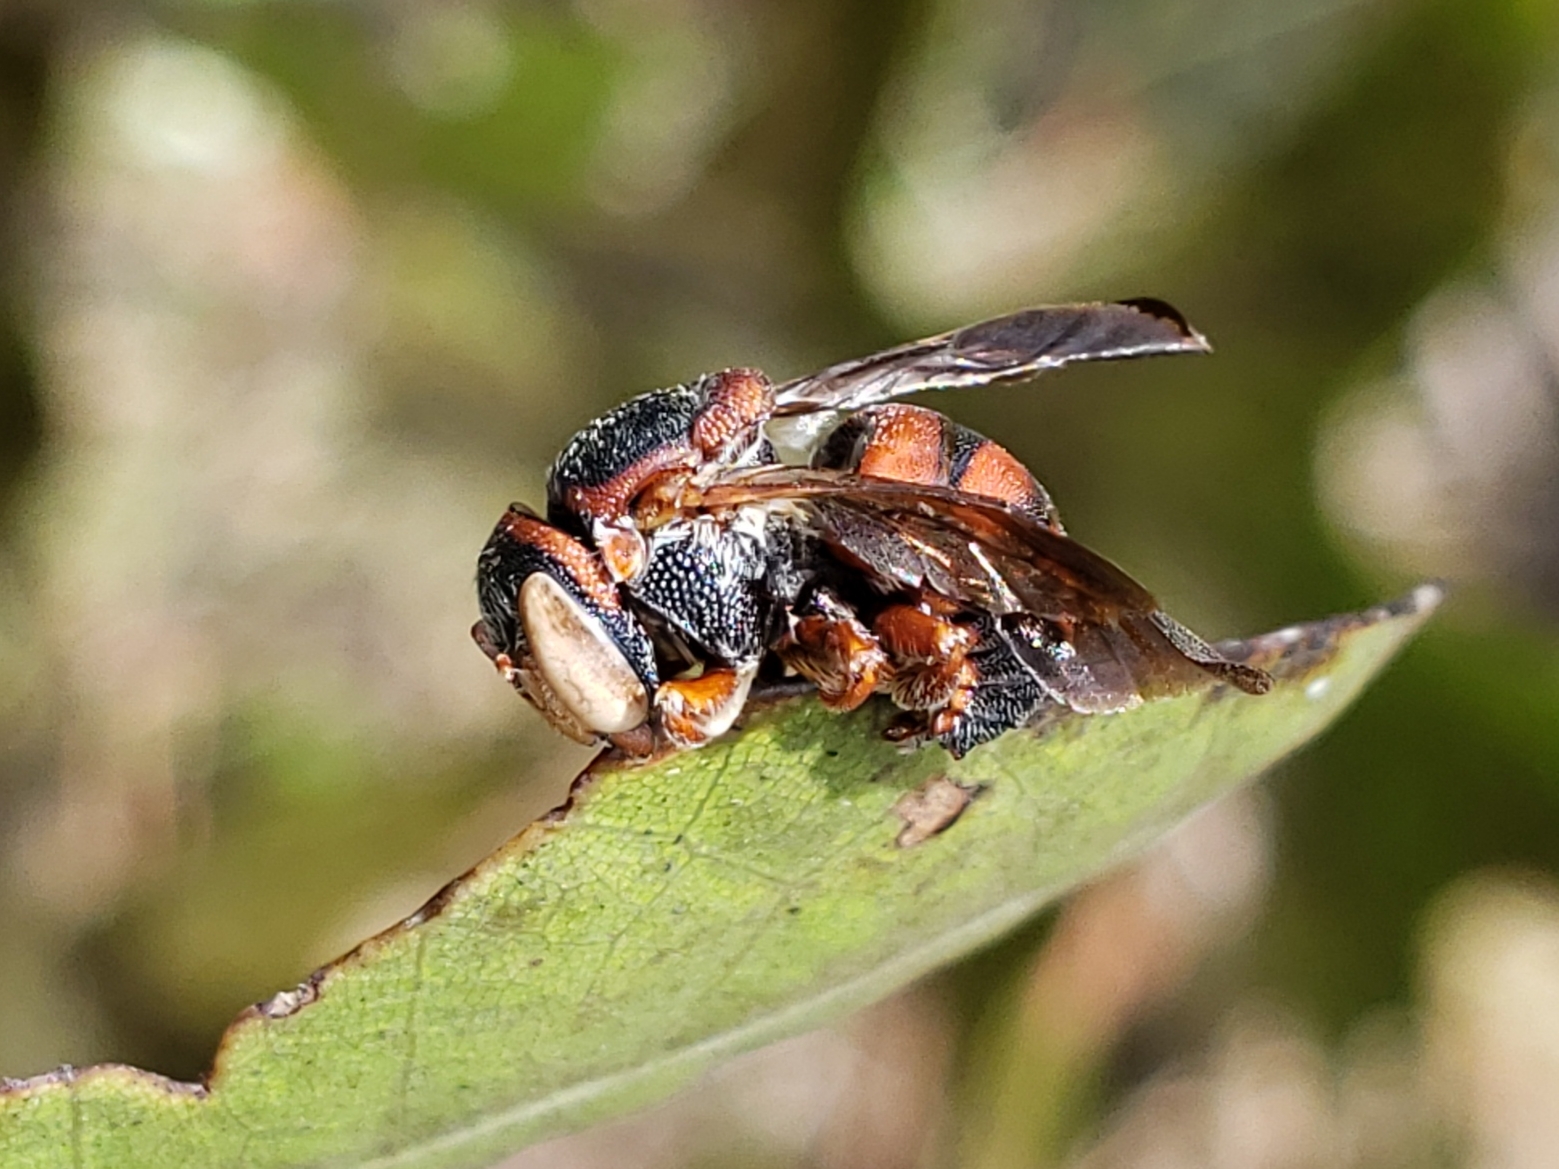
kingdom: Animalia
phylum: Arthropoda
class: Insecta
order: Hymenoptera
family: Megachilidae
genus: Loyolanthidium
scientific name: Loyolanthidium
